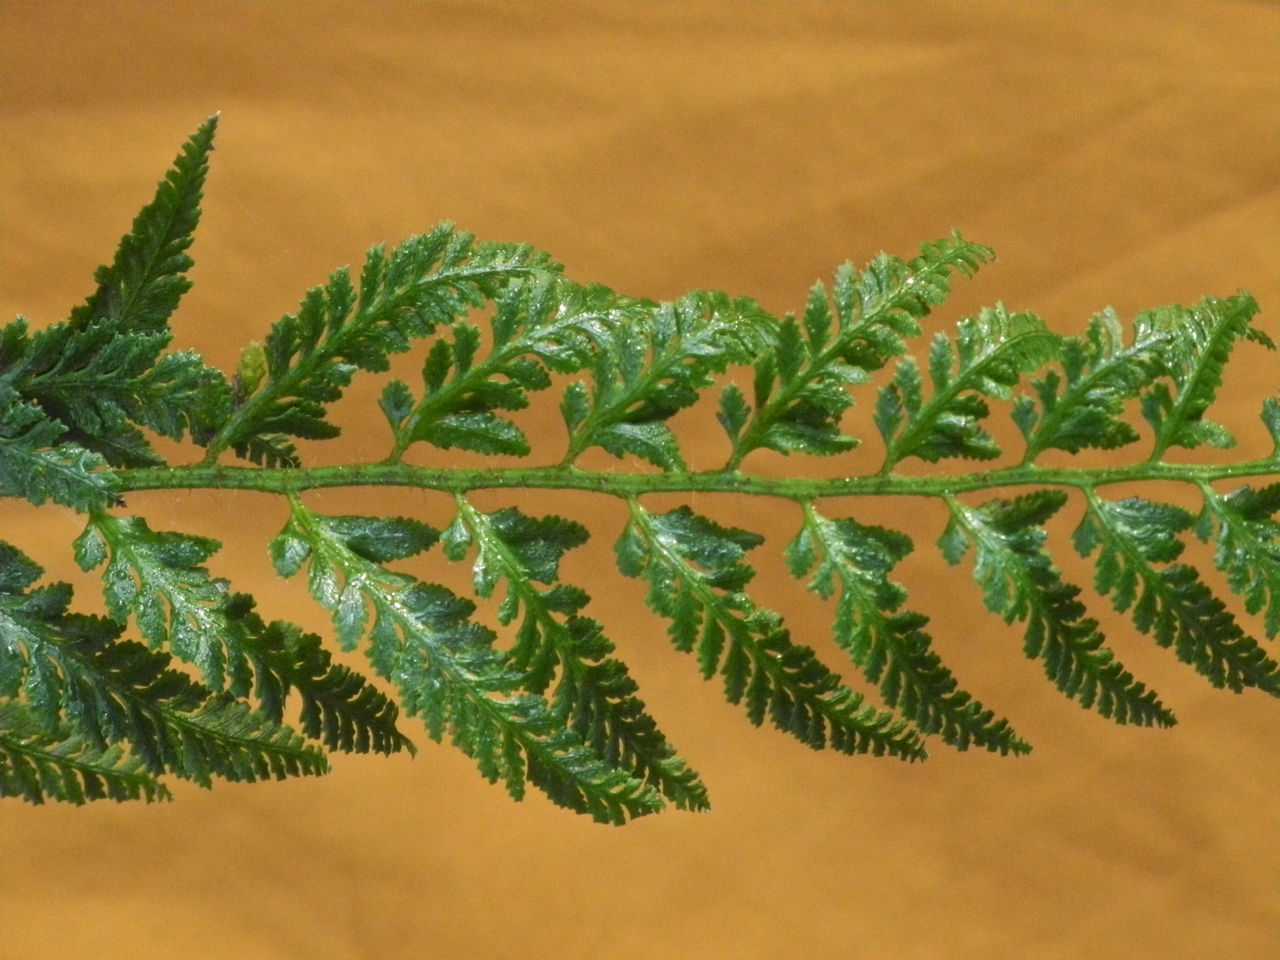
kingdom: Plantae
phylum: Tracheophyta
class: Polypodiopsida
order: Polypodiales
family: Dryopteridaceae
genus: Polystichum
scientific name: Polystichum acrostichoides
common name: Christmas fern
